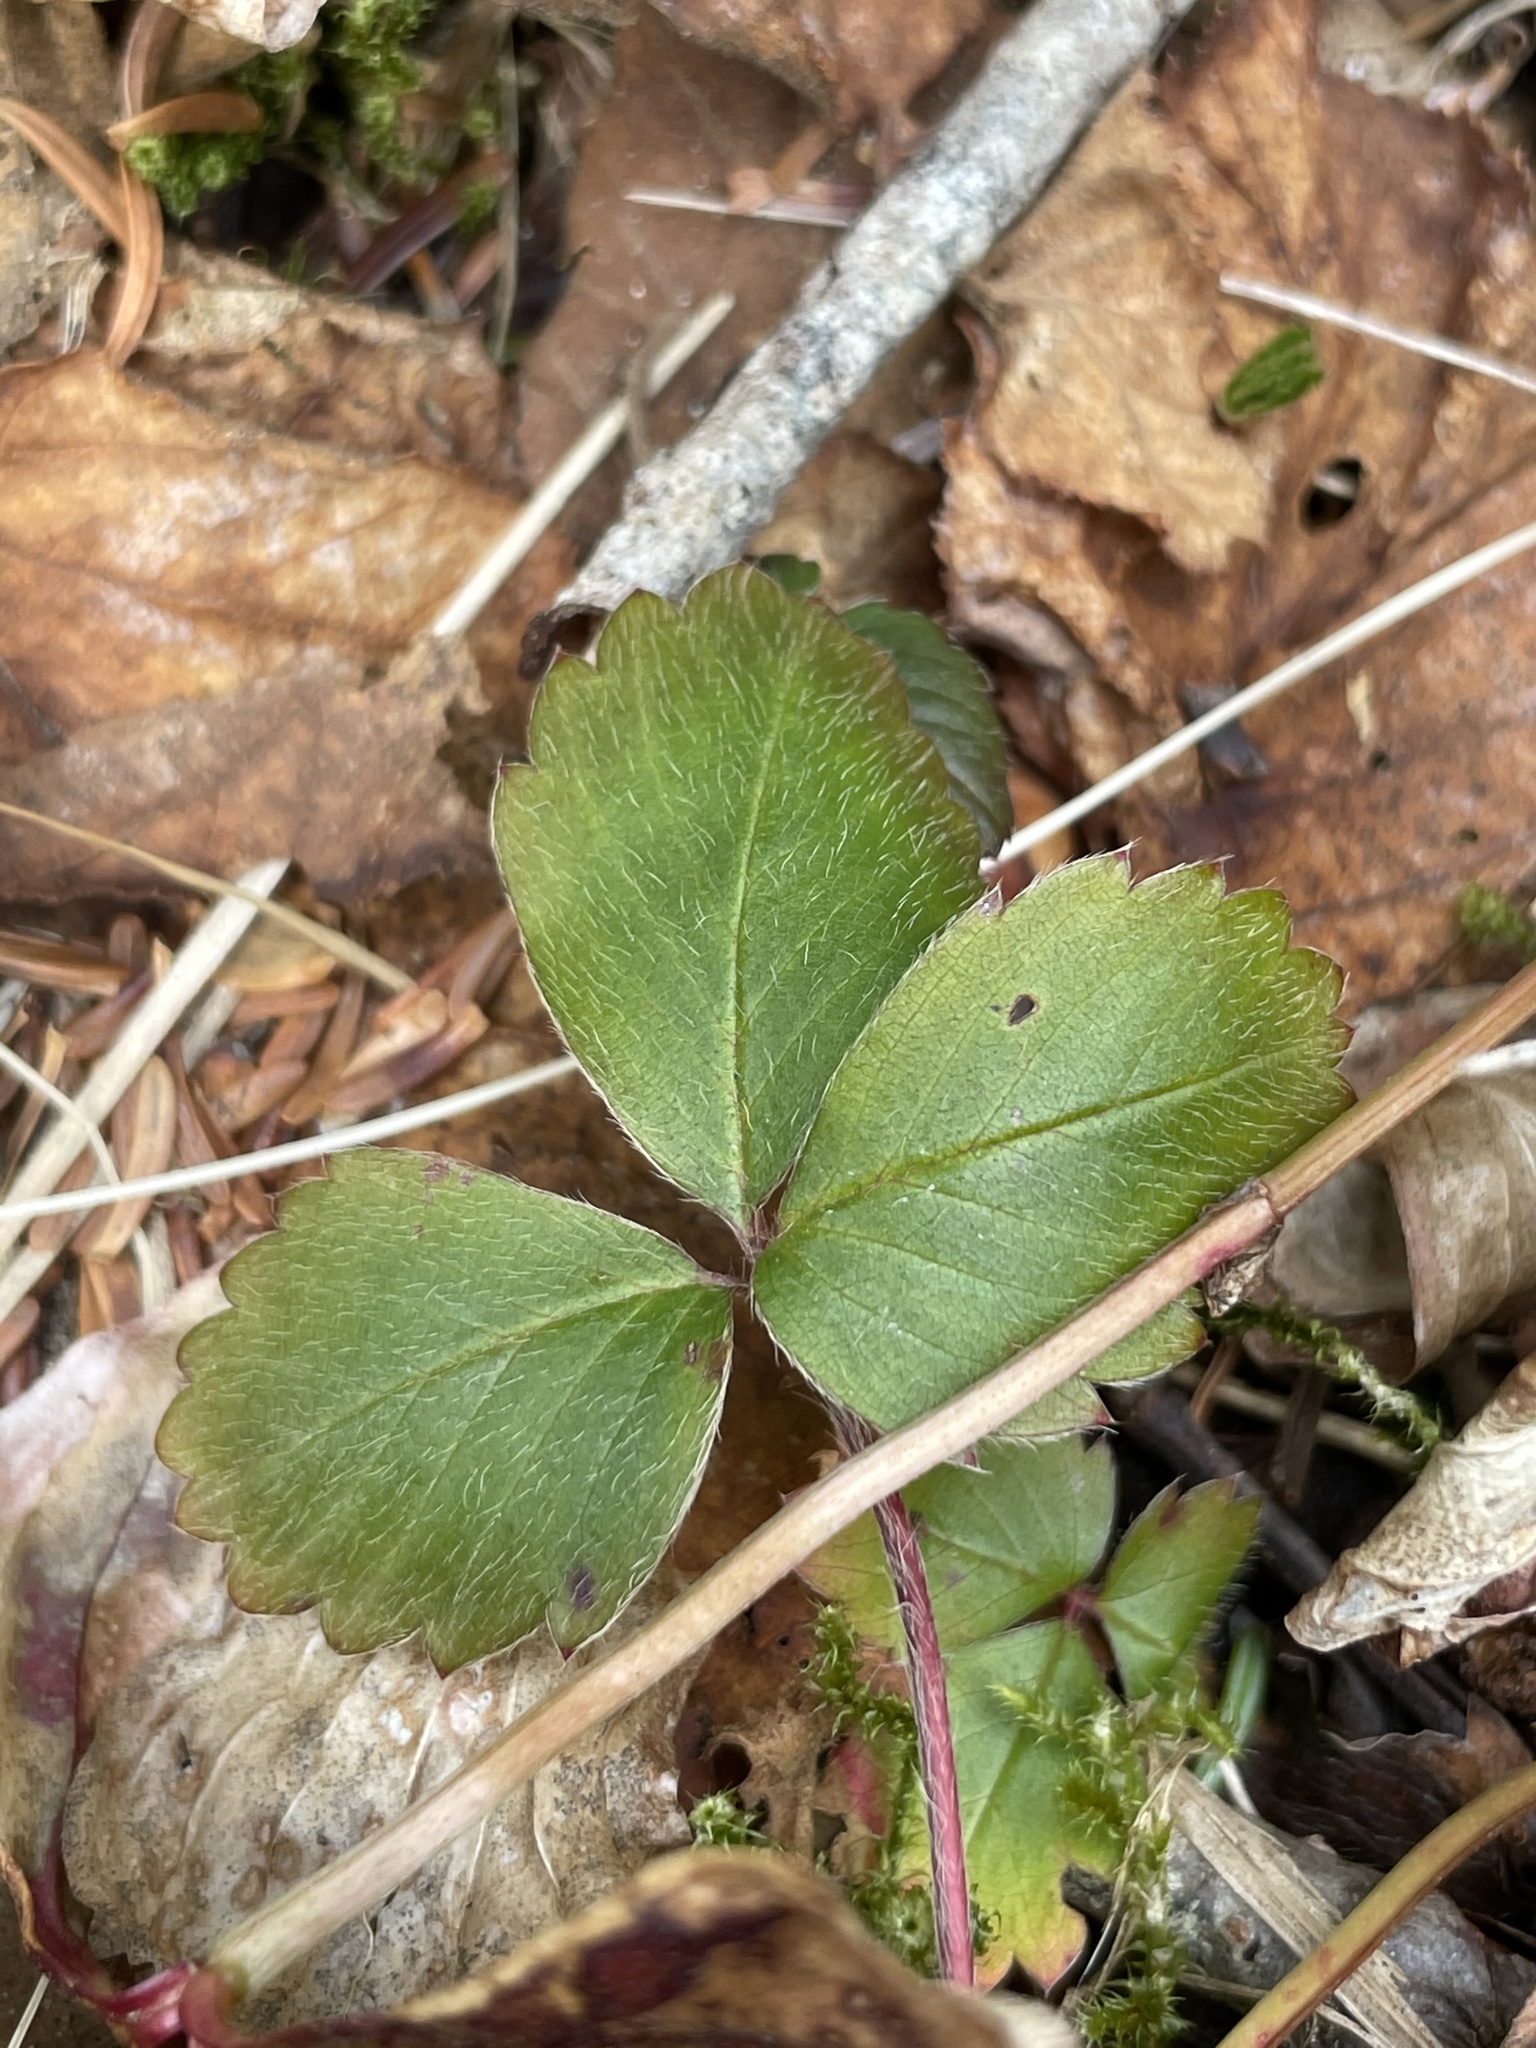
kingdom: Plantae
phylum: Tracheophyta
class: Magnoliopsida
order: Rosales
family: Rosaceae
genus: Fragaria
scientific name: Fragaria virginiana
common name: Thickleaved wild strawberry
